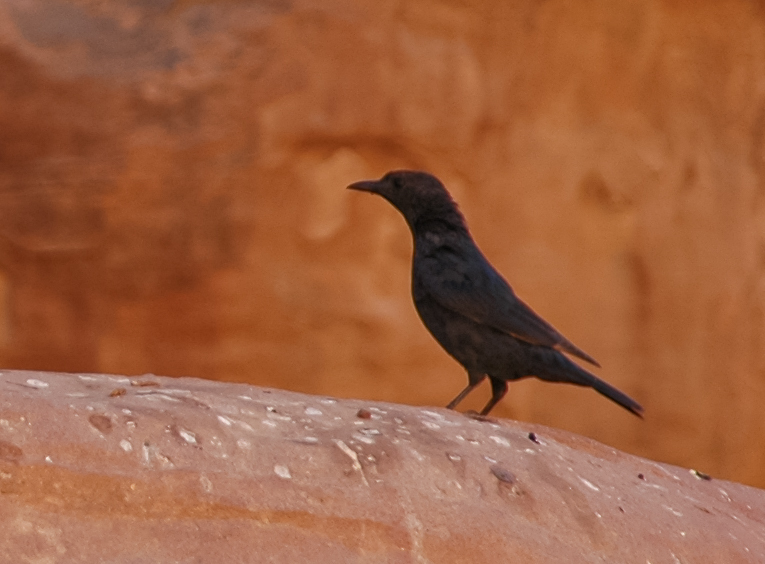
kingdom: Animalia
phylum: Chordata
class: Aves
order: Passeriformes
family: Sturnidae
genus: Onychognathus
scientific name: Onychognathus tristramii
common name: Tristram's starling
